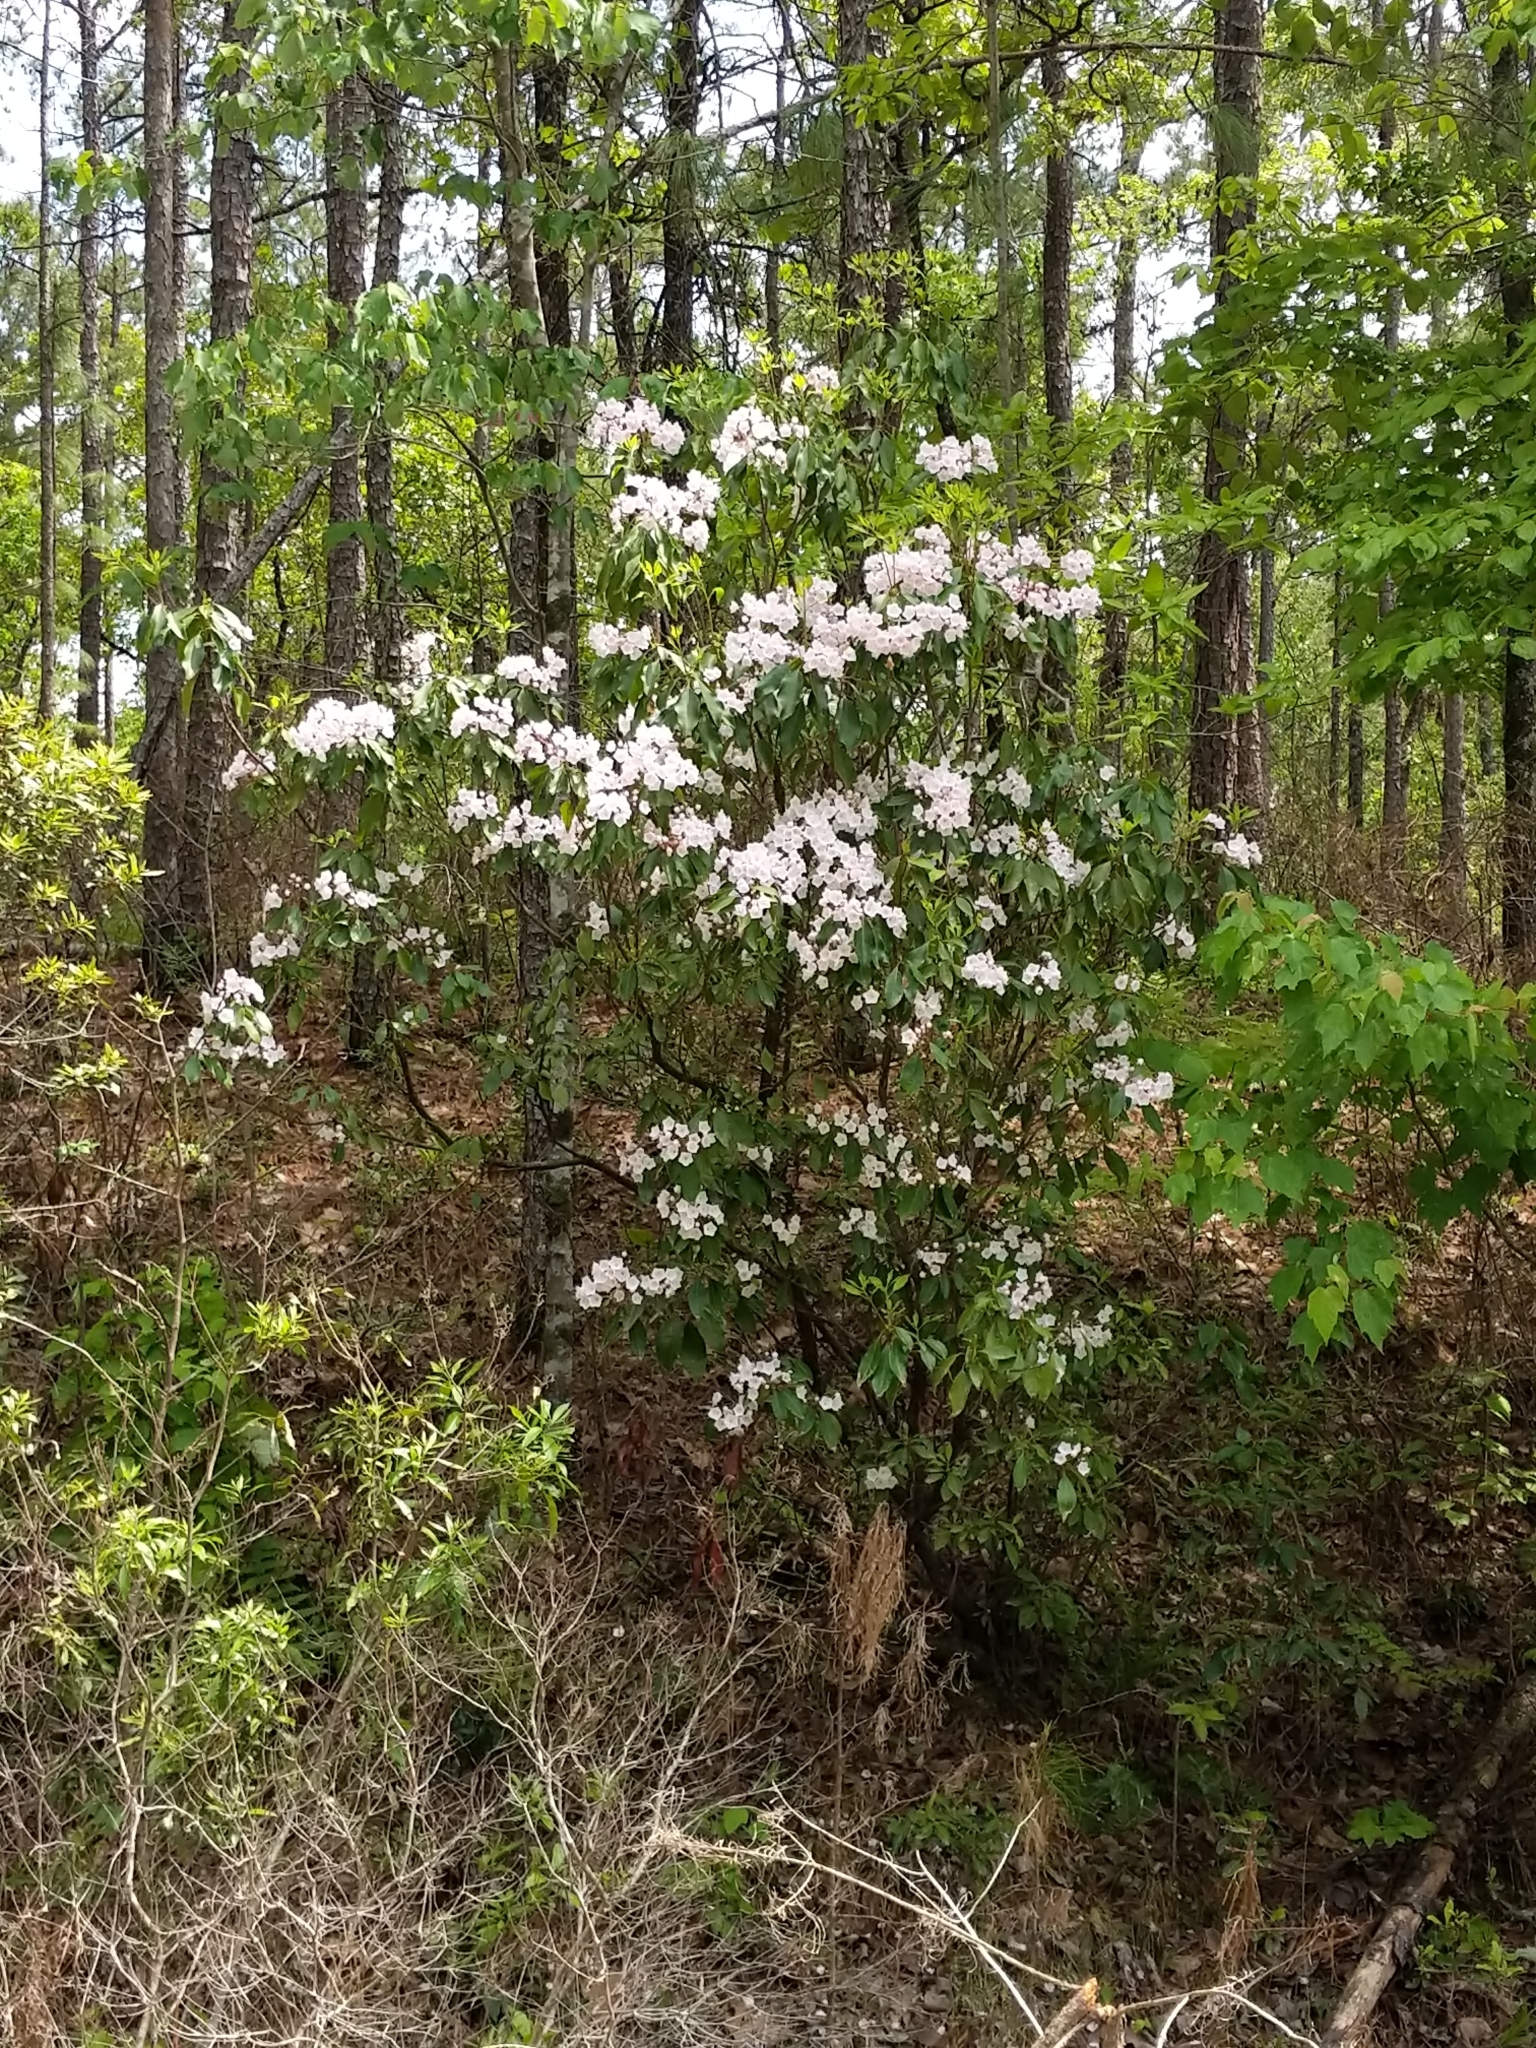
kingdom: Plantae
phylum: Tracheophyta
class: Magnoliopsida
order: Ericales
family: Ericaceae
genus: Kalmia
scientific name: Kalmia latifolia
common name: Mountain-laurel
